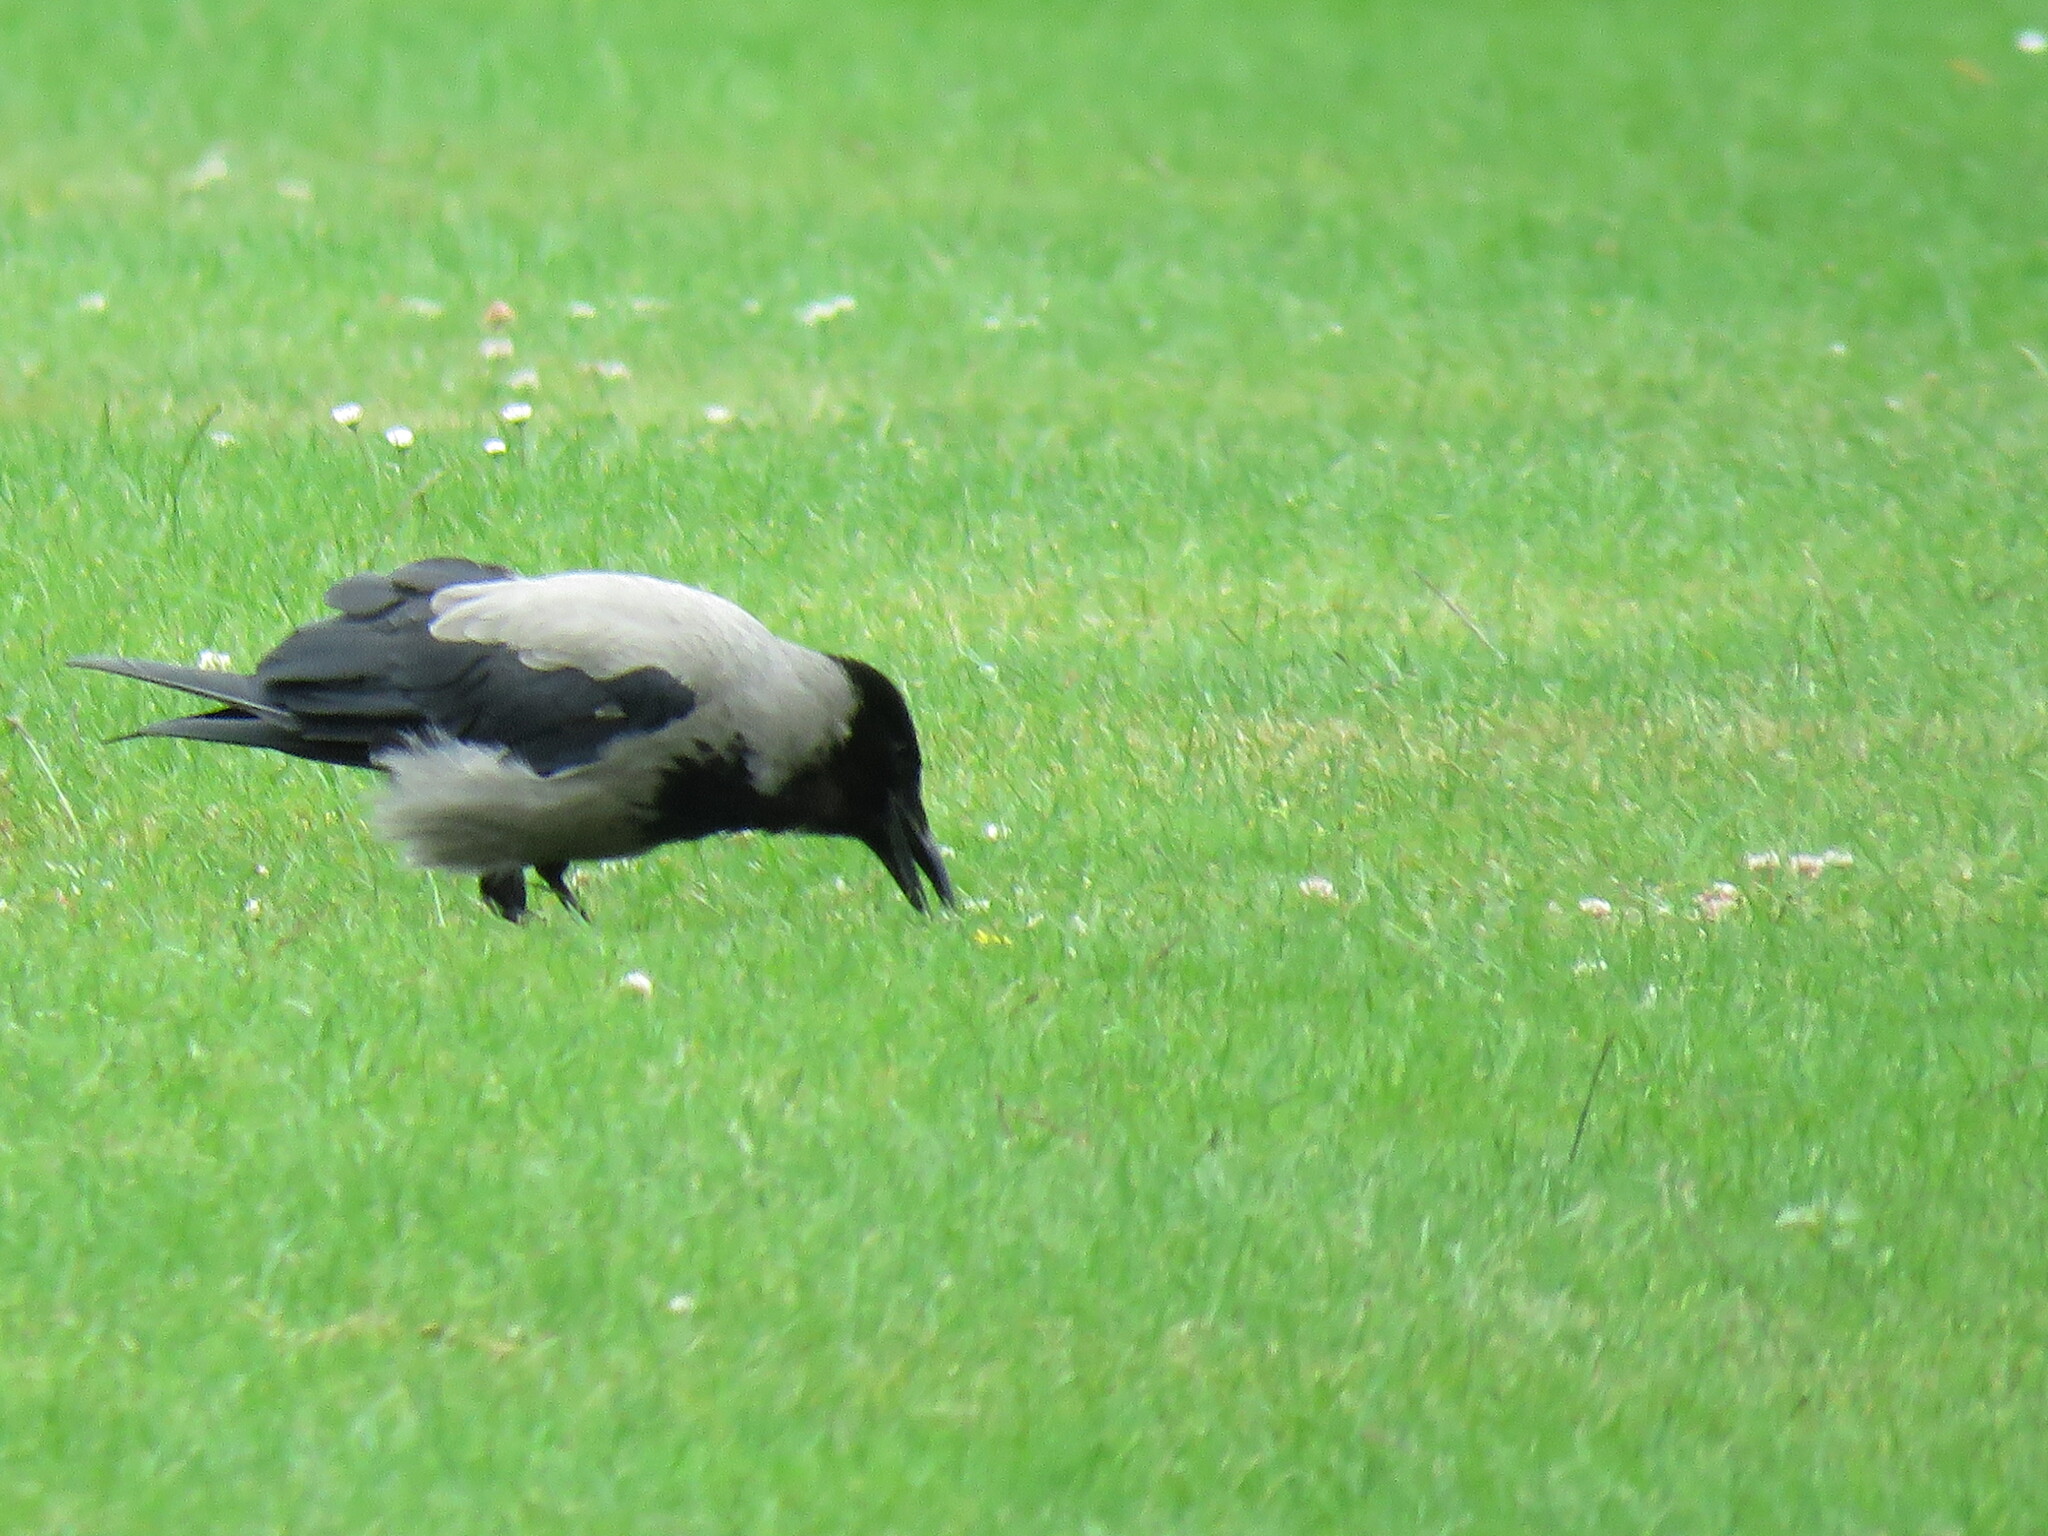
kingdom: Animalia
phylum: Chordata
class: Aves
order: Passeriformes
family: Corvidae
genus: Corvus
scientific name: Corvus cornix
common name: Hooded crow
